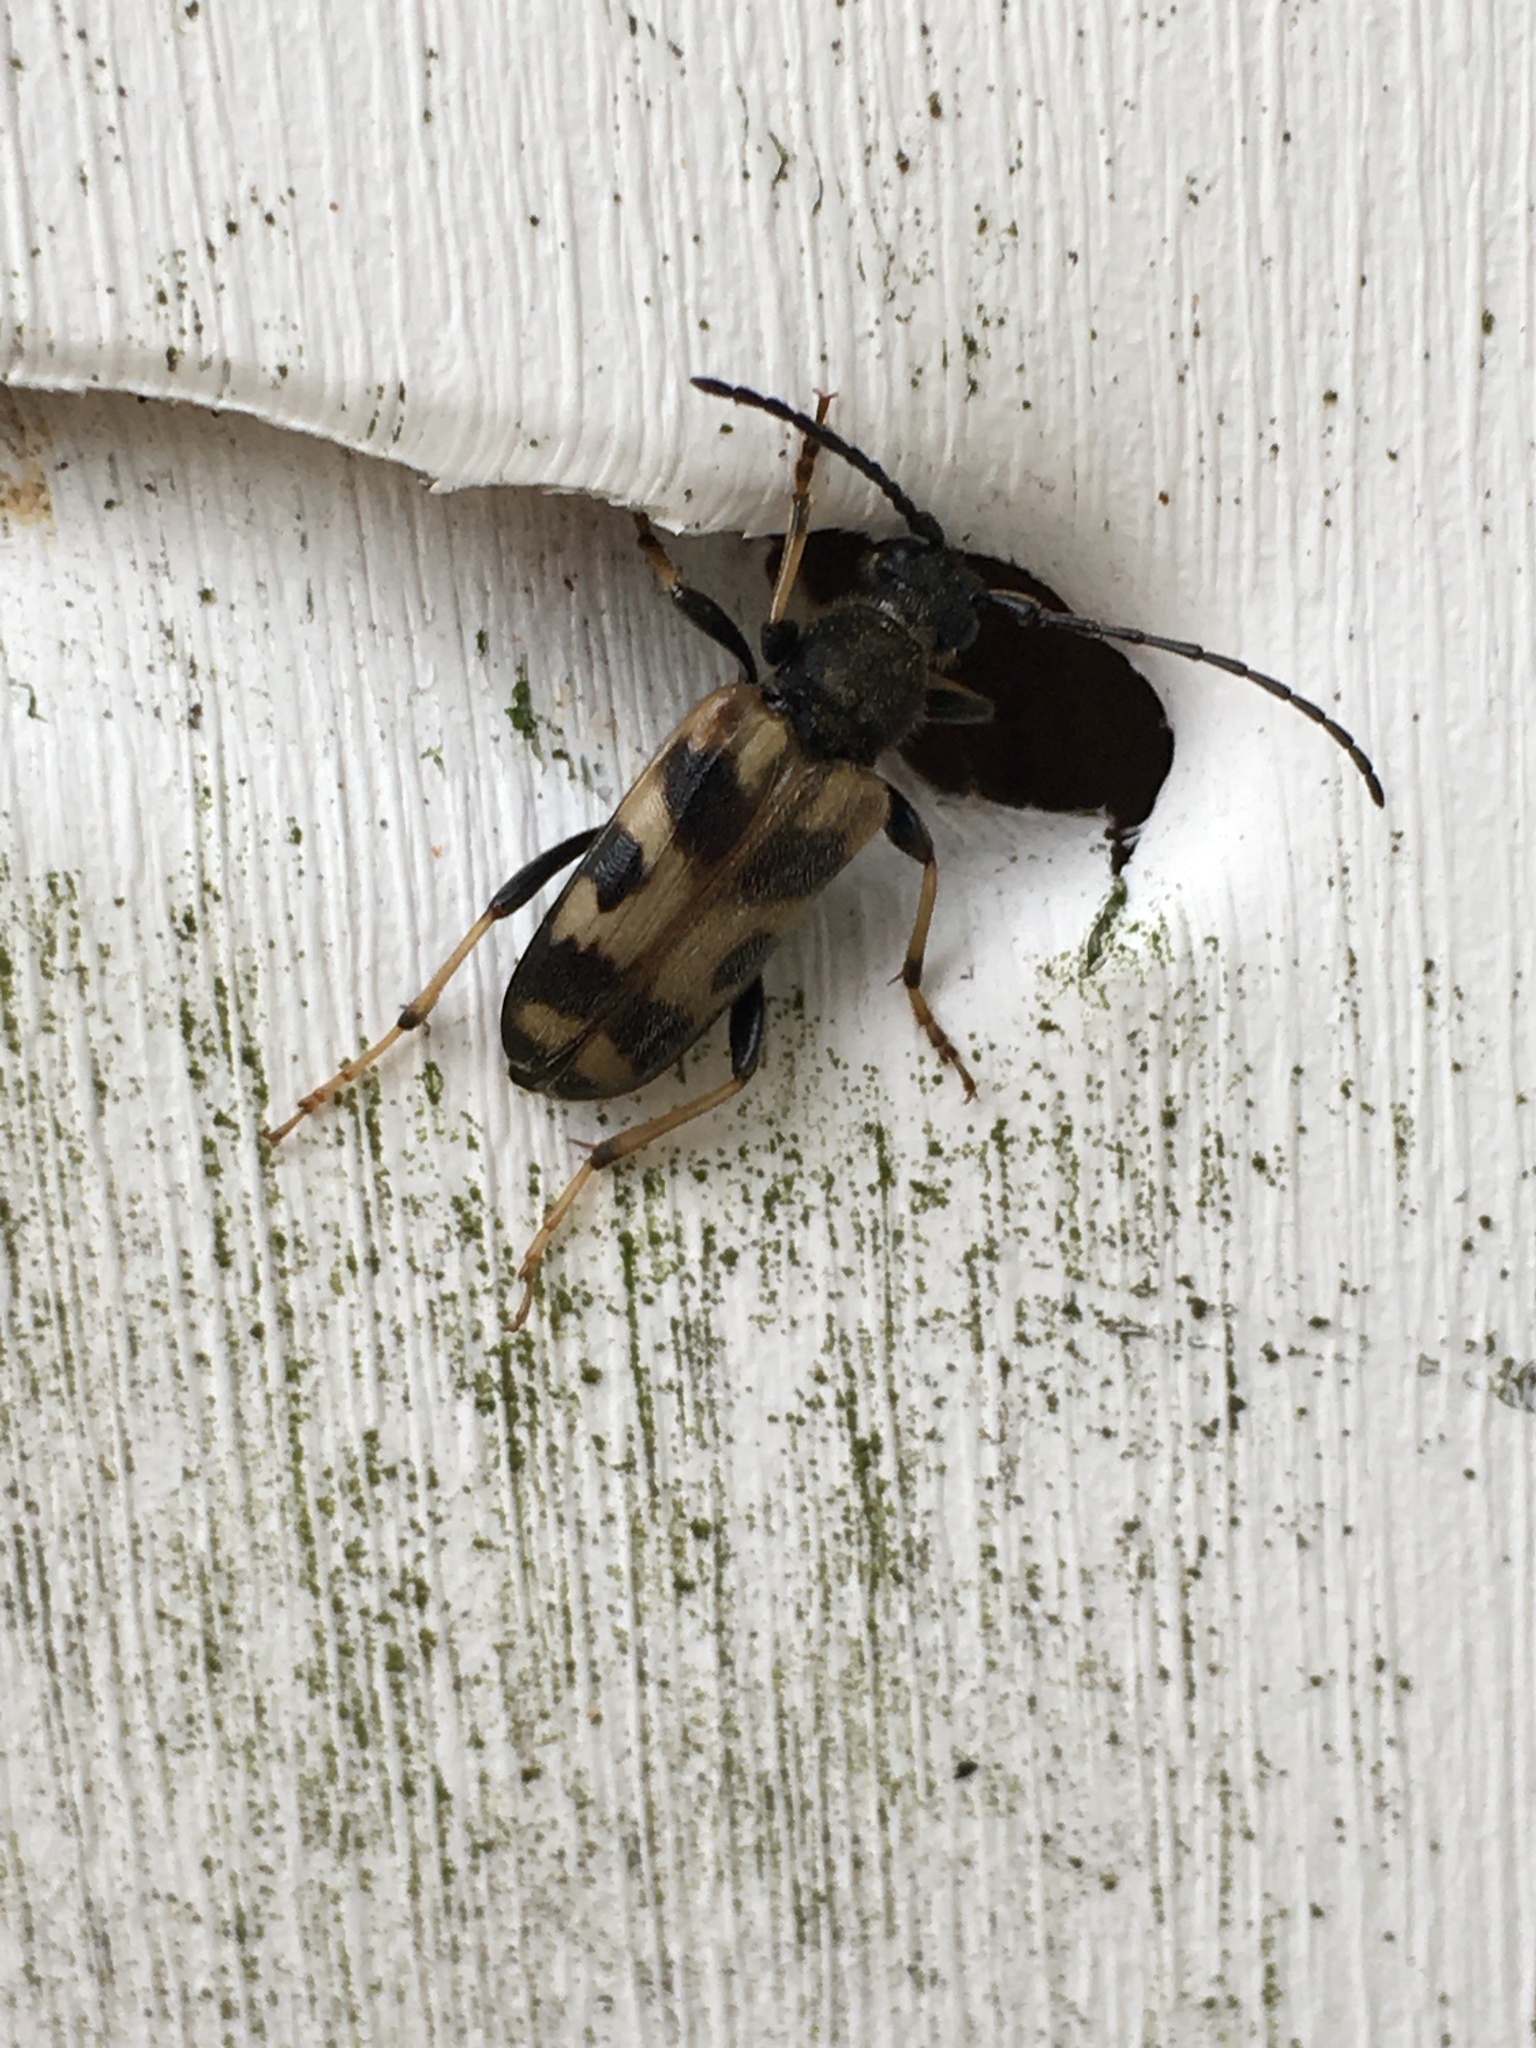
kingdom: Animalia
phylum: Arthropoda
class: Insecta
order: Coleoptera
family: Cerambycidae
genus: Xestoleptura
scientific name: Xestoleptura tibialis
